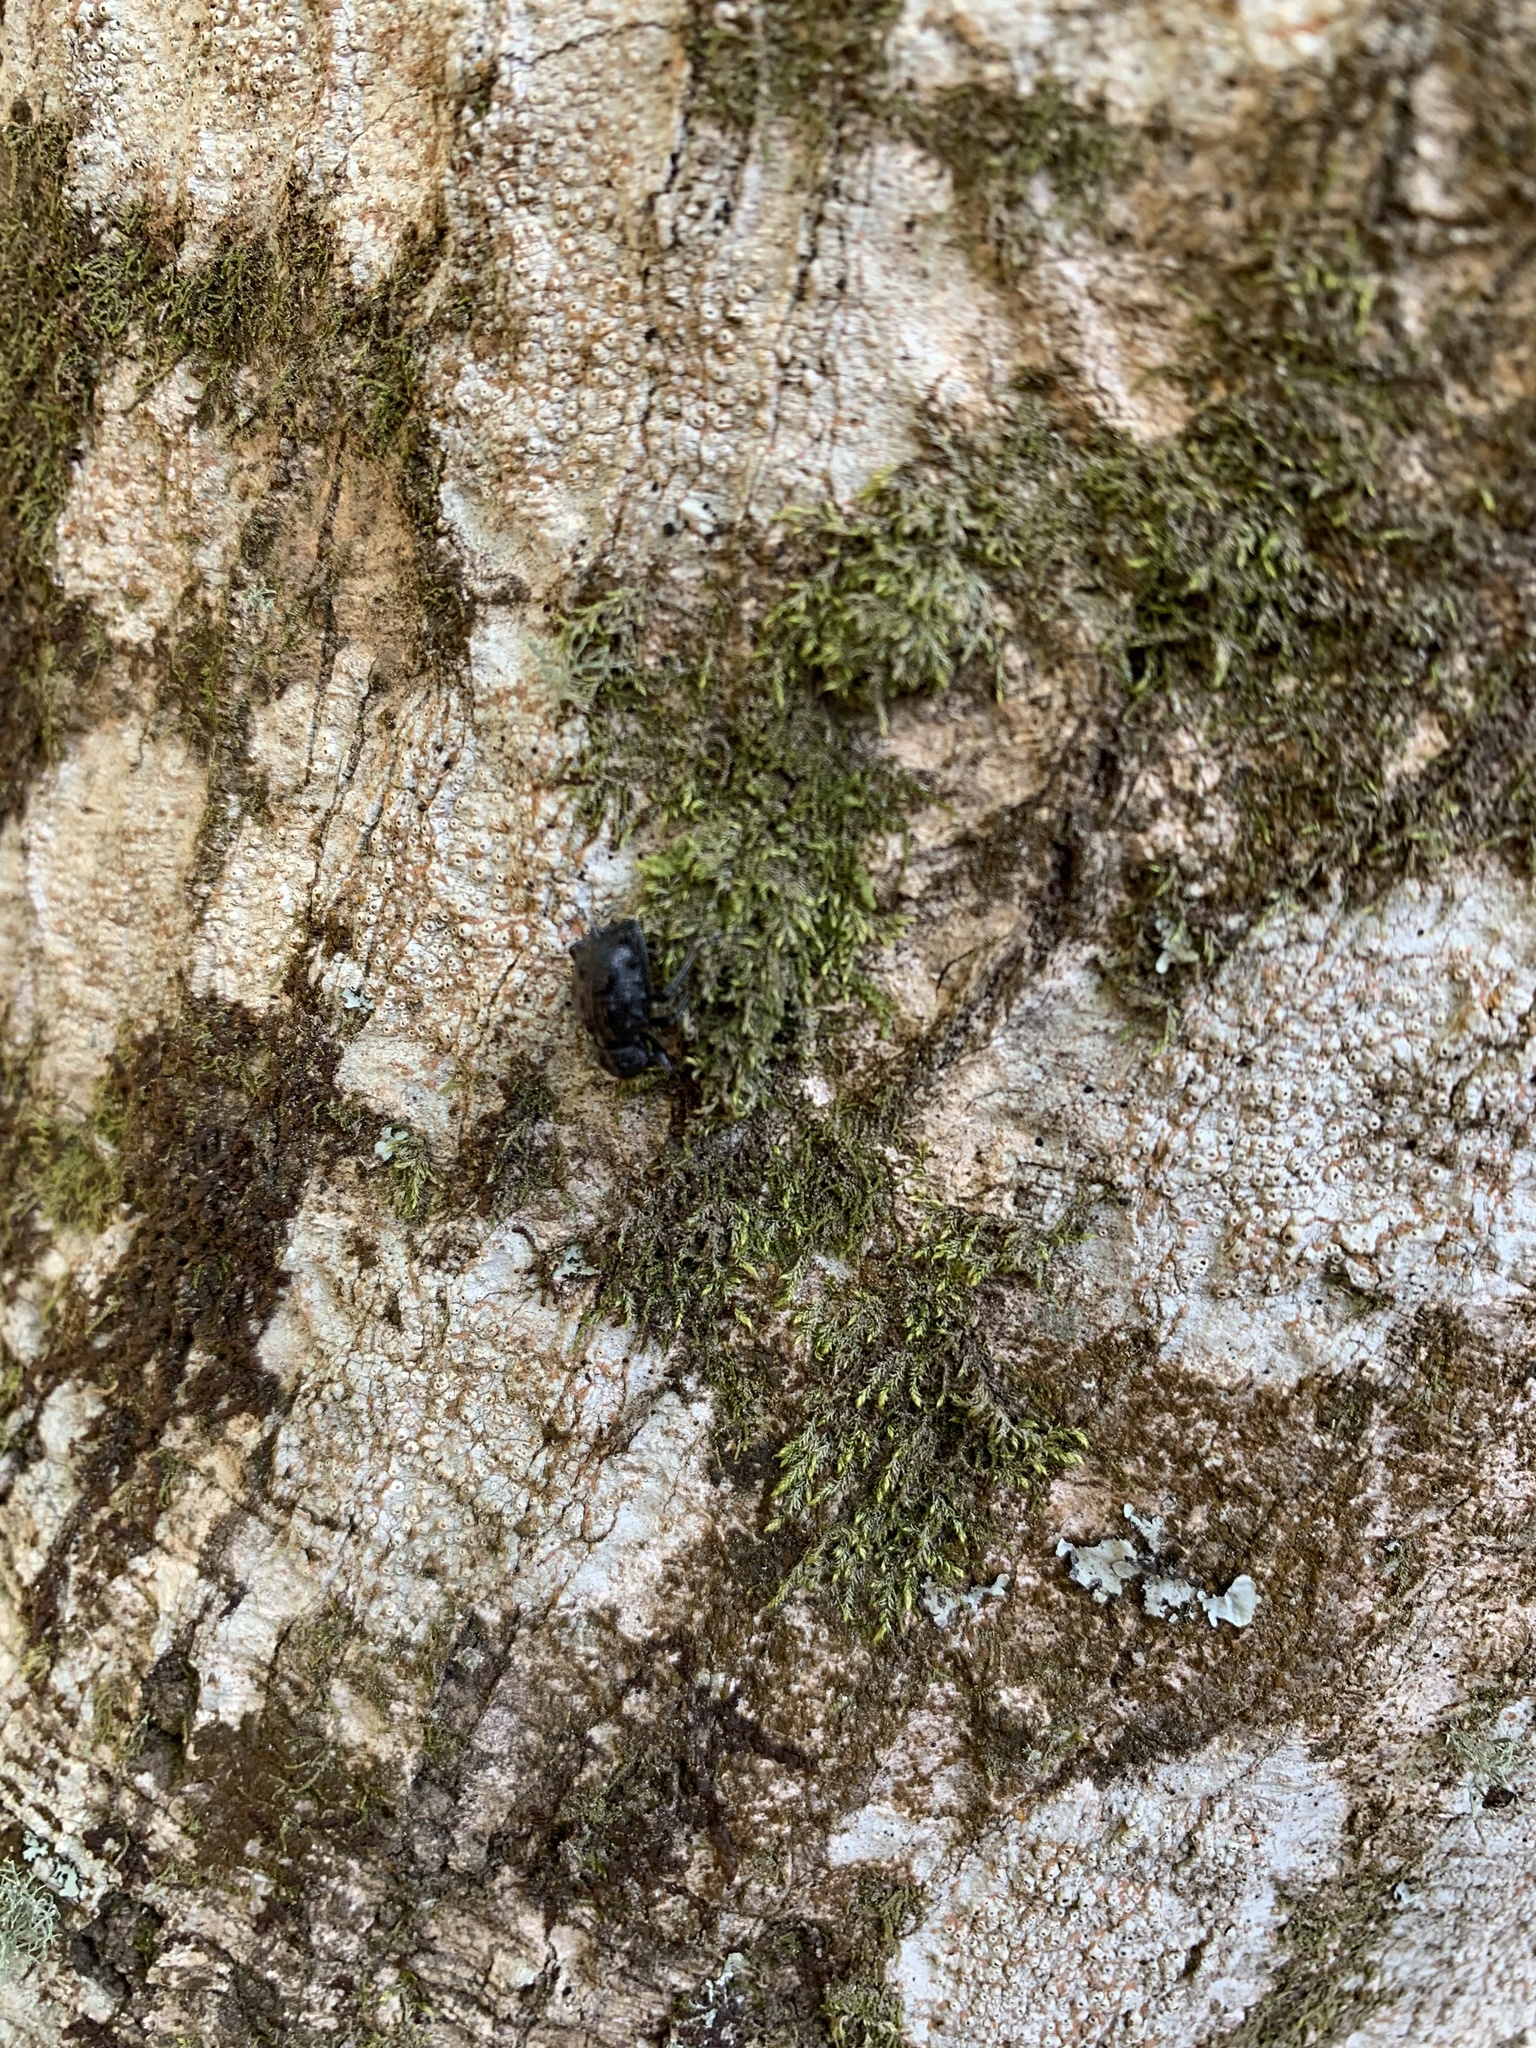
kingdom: Animalia
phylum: Arthropoda
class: Insecta
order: Coleoptera
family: Curculionidae
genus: Megalometis
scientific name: Megalometis spiniferus
